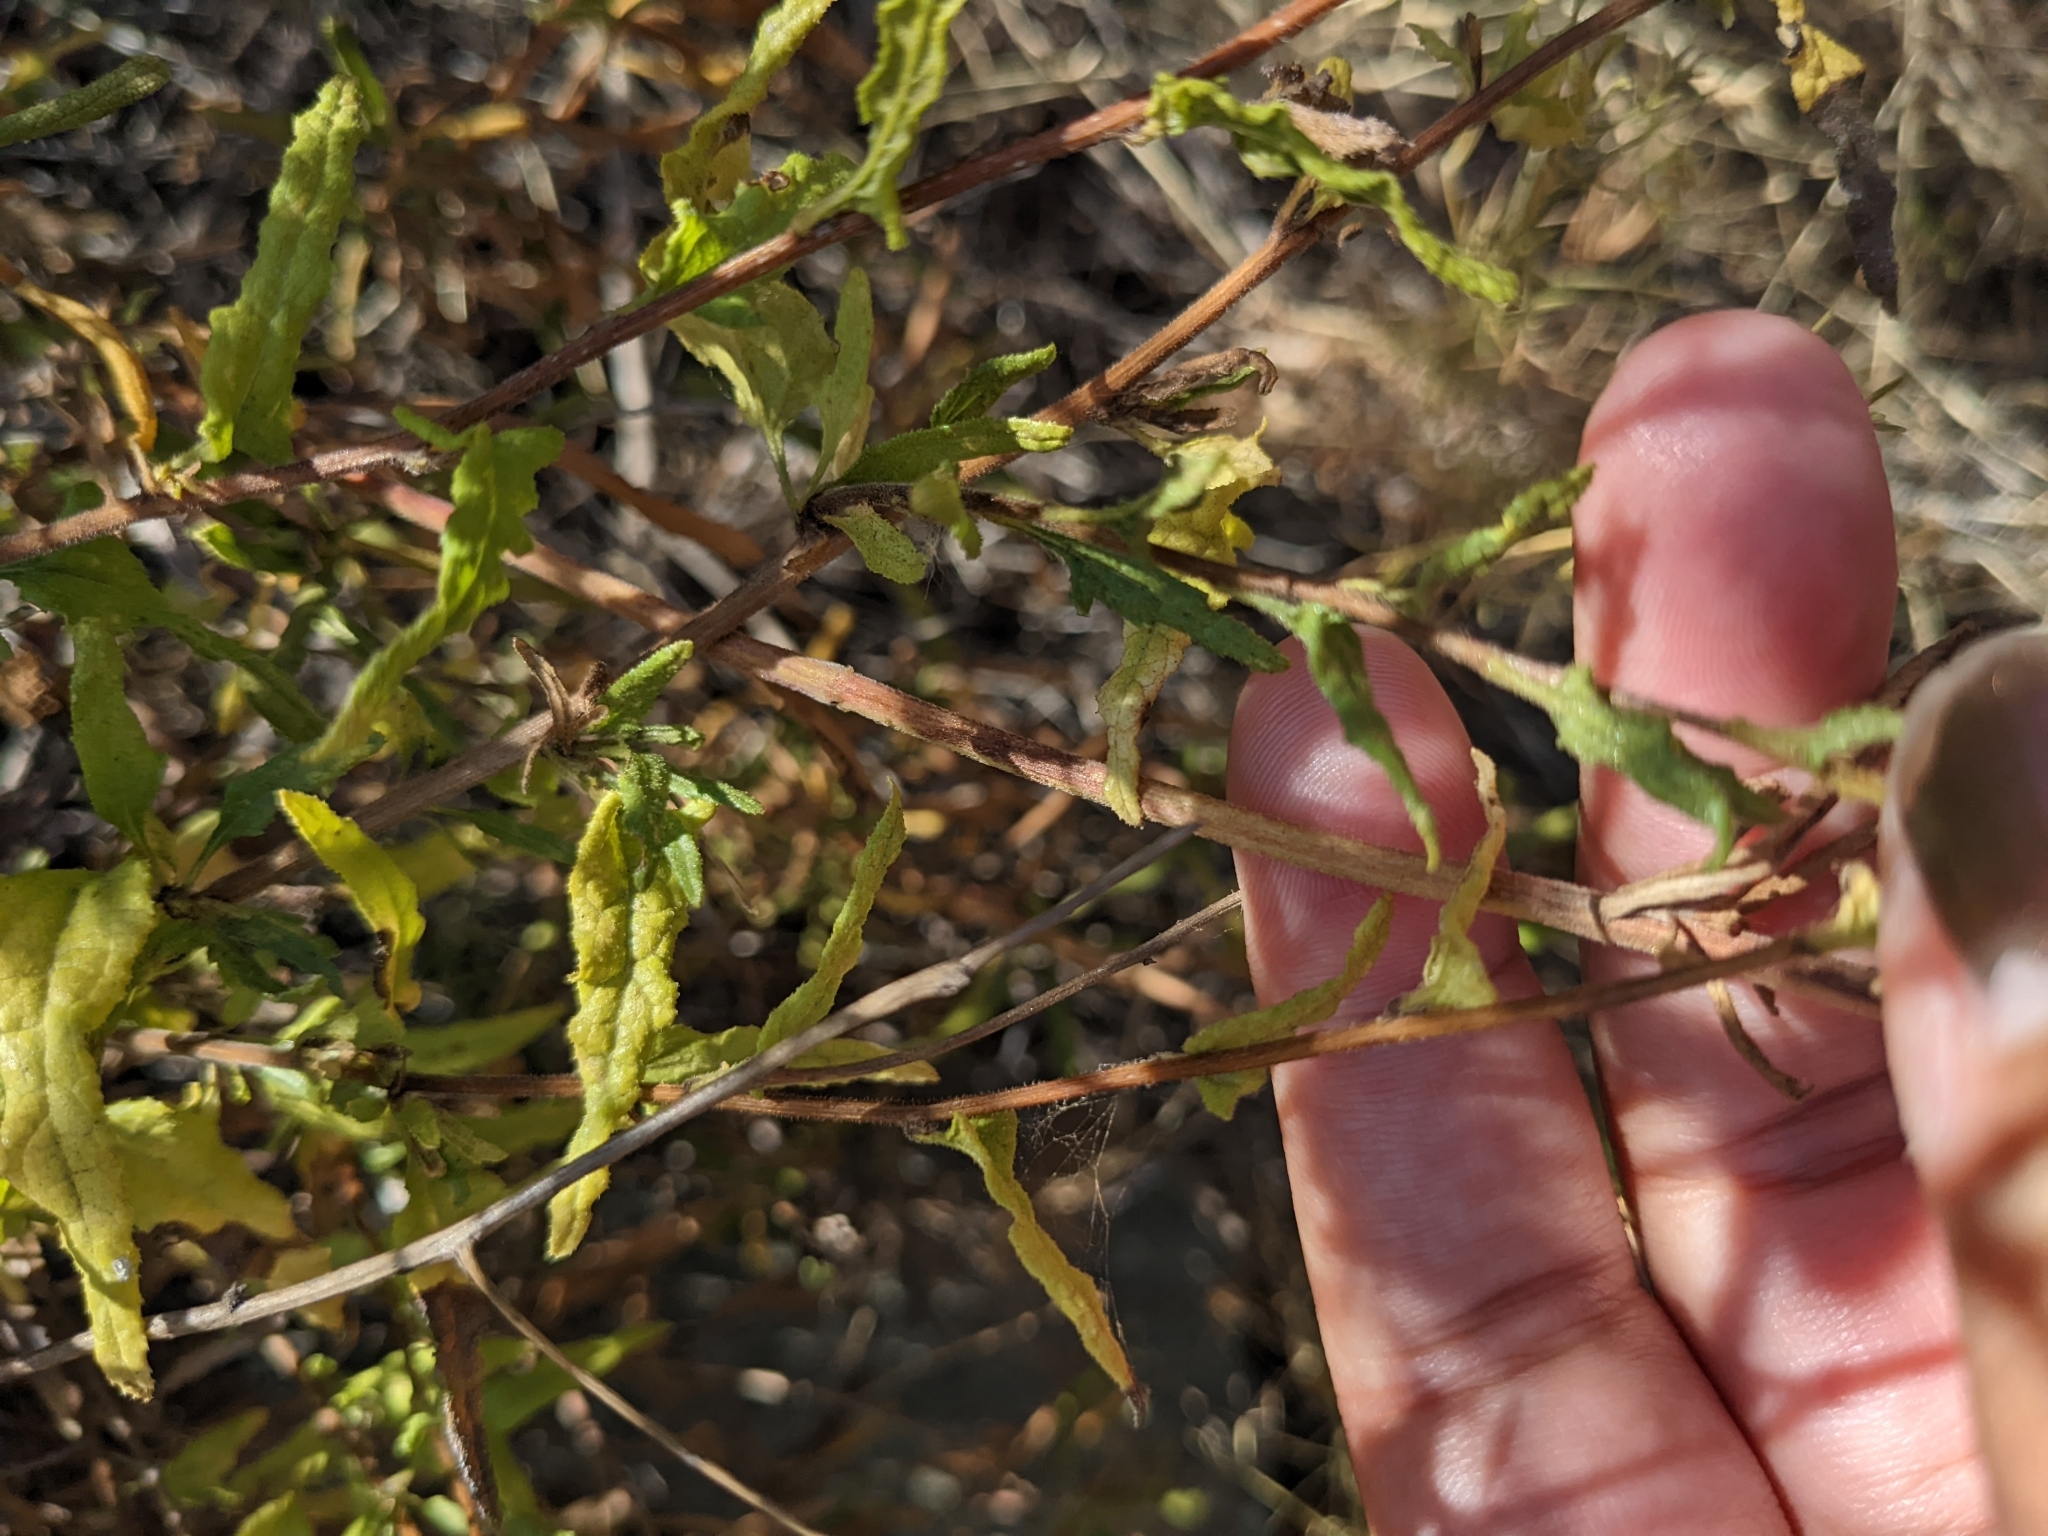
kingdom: Plantae
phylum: Tracheophyta
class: Magnoliopsida
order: Asterales
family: Asteraceae
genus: Bahiopsis
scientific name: Bahiopsis laciniata
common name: San diego county viguiera
